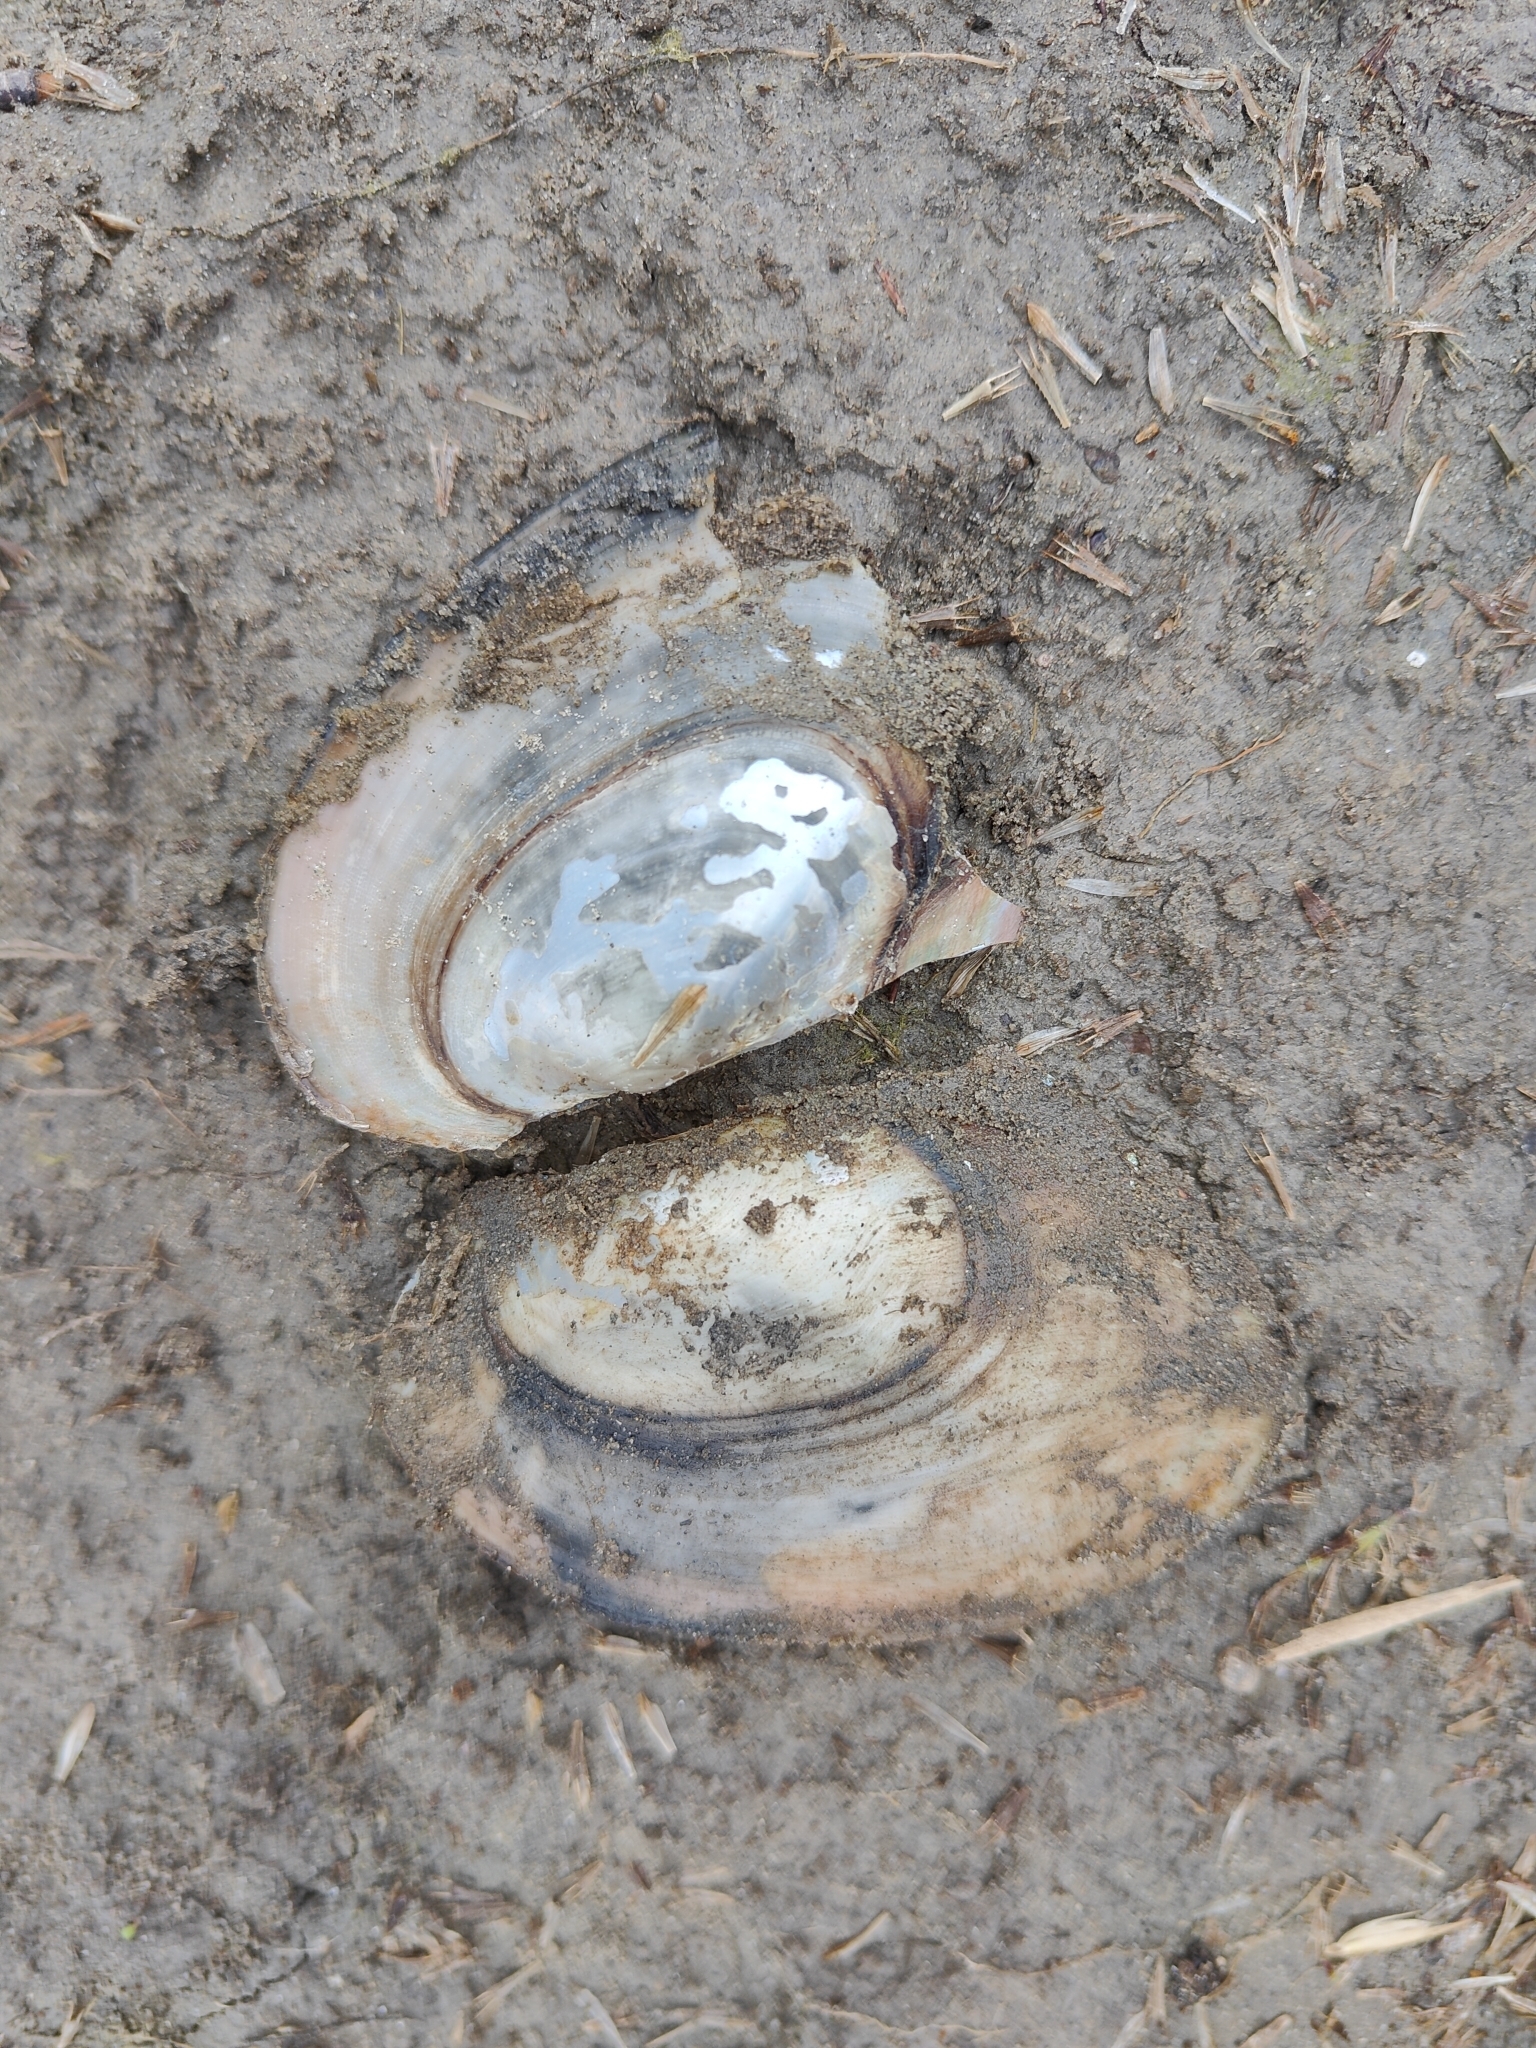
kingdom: Animalia
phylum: Mollusca
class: Bivalvia
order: Unionida
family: Unionidae
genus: Potamilus
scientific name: Potamilus ohiensis
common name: Pink papershell
